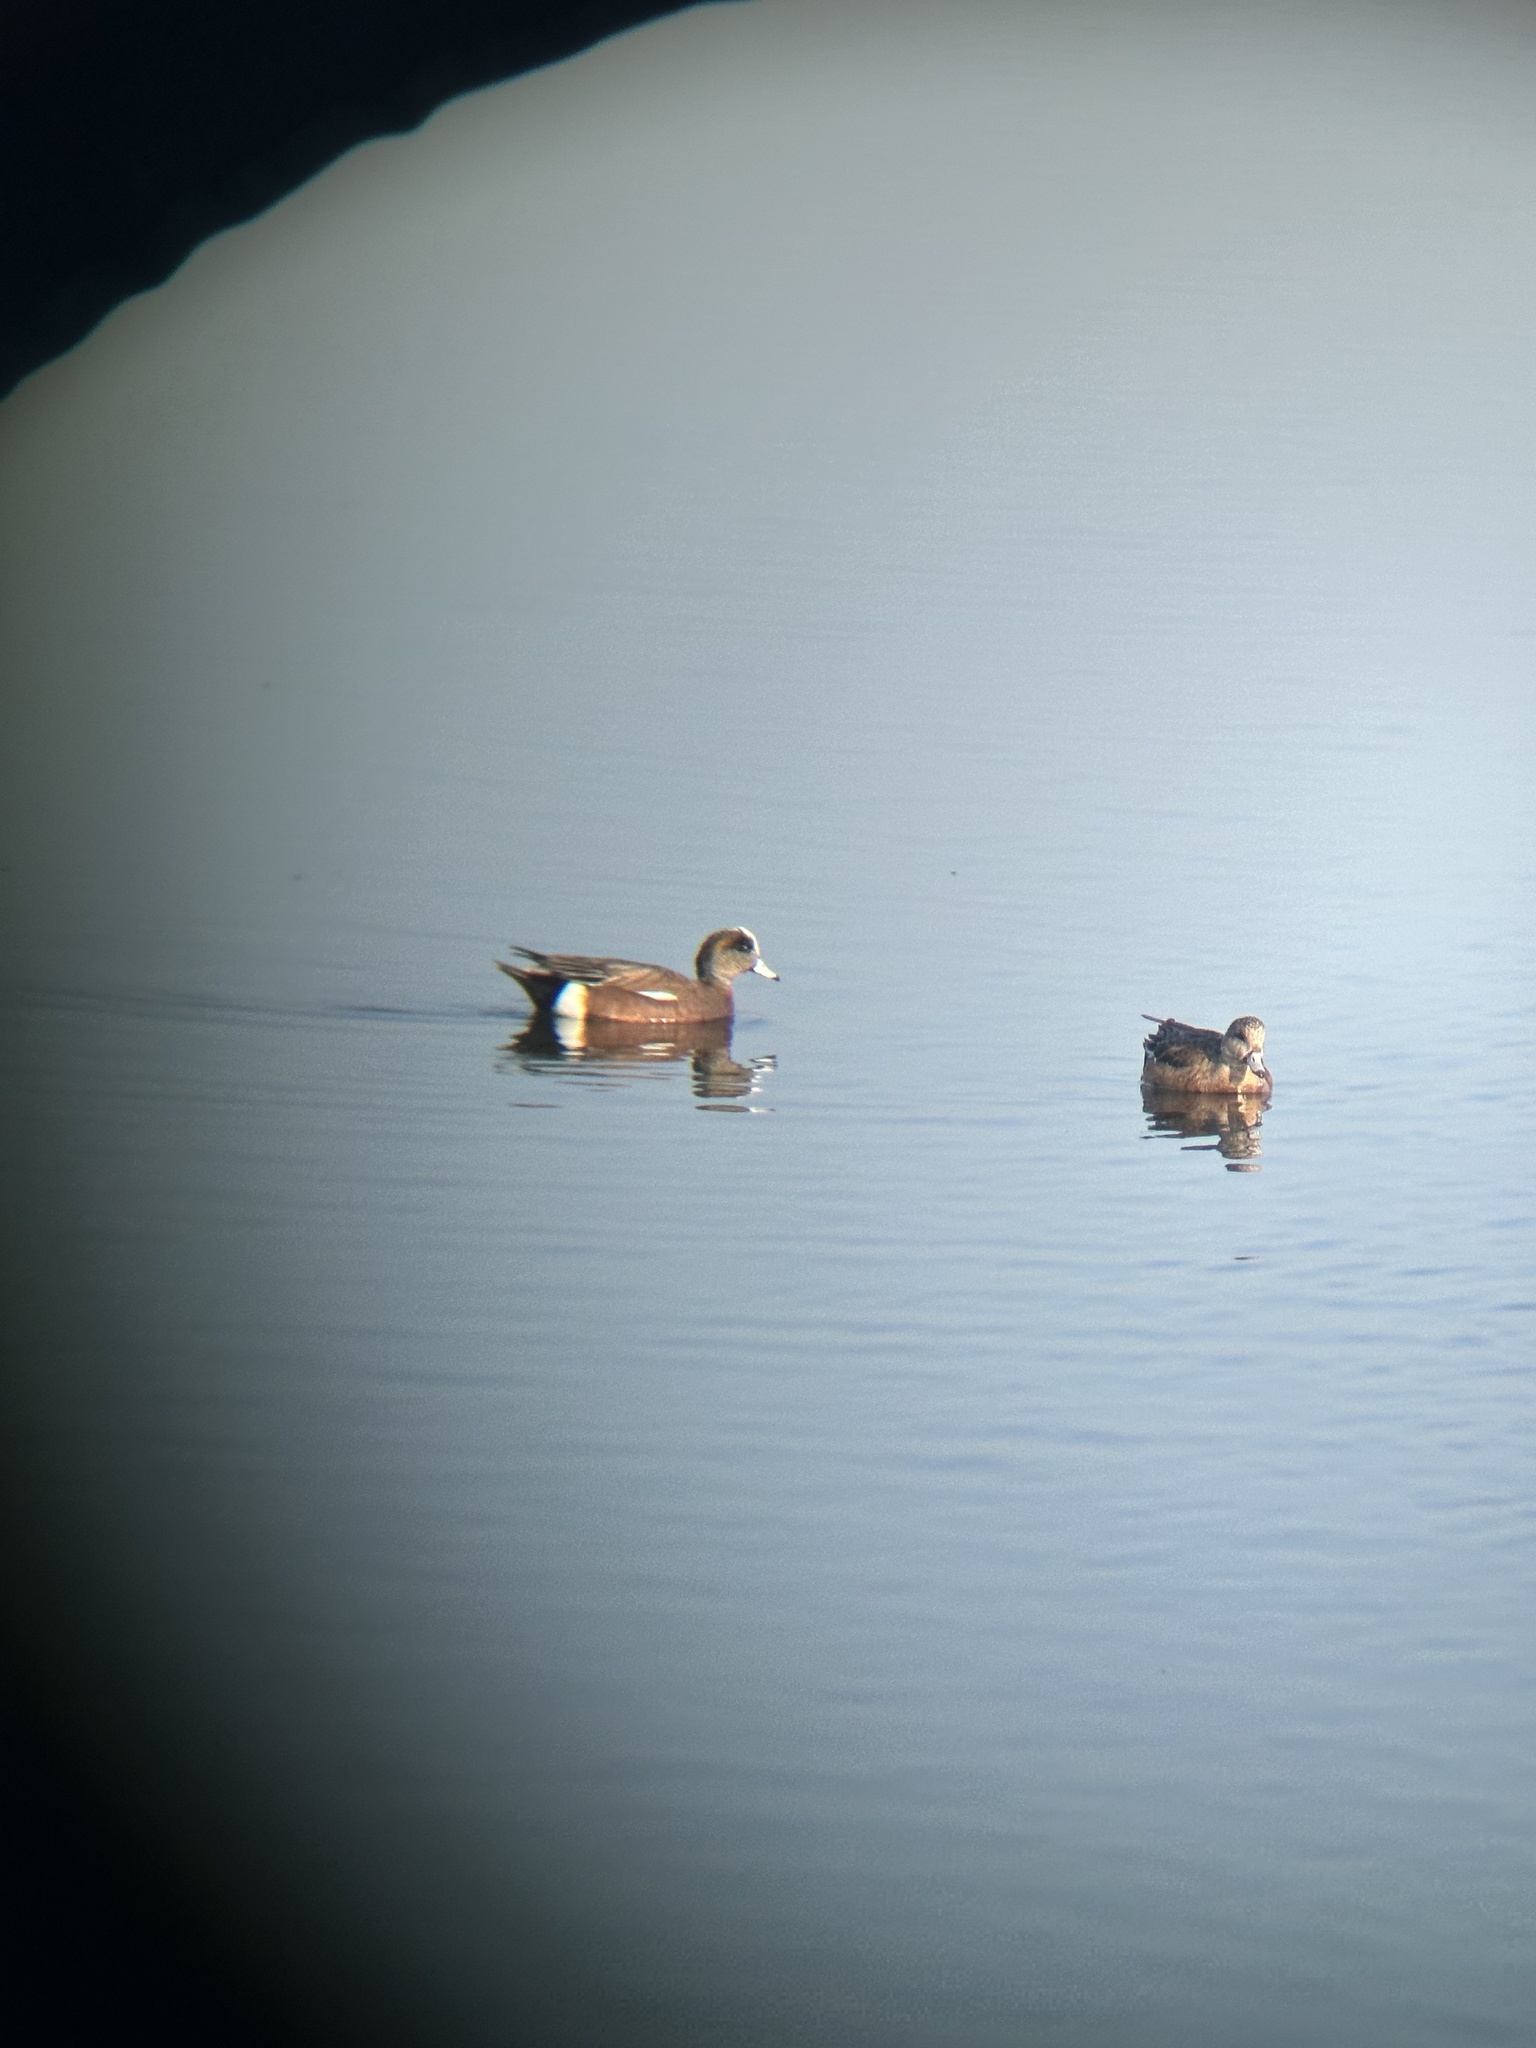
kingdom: Animalia
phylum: Chordata
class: Aves
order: Anseriformes
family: Anatidae
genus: Mareca
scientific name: Mareca americana
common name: American wigeon
